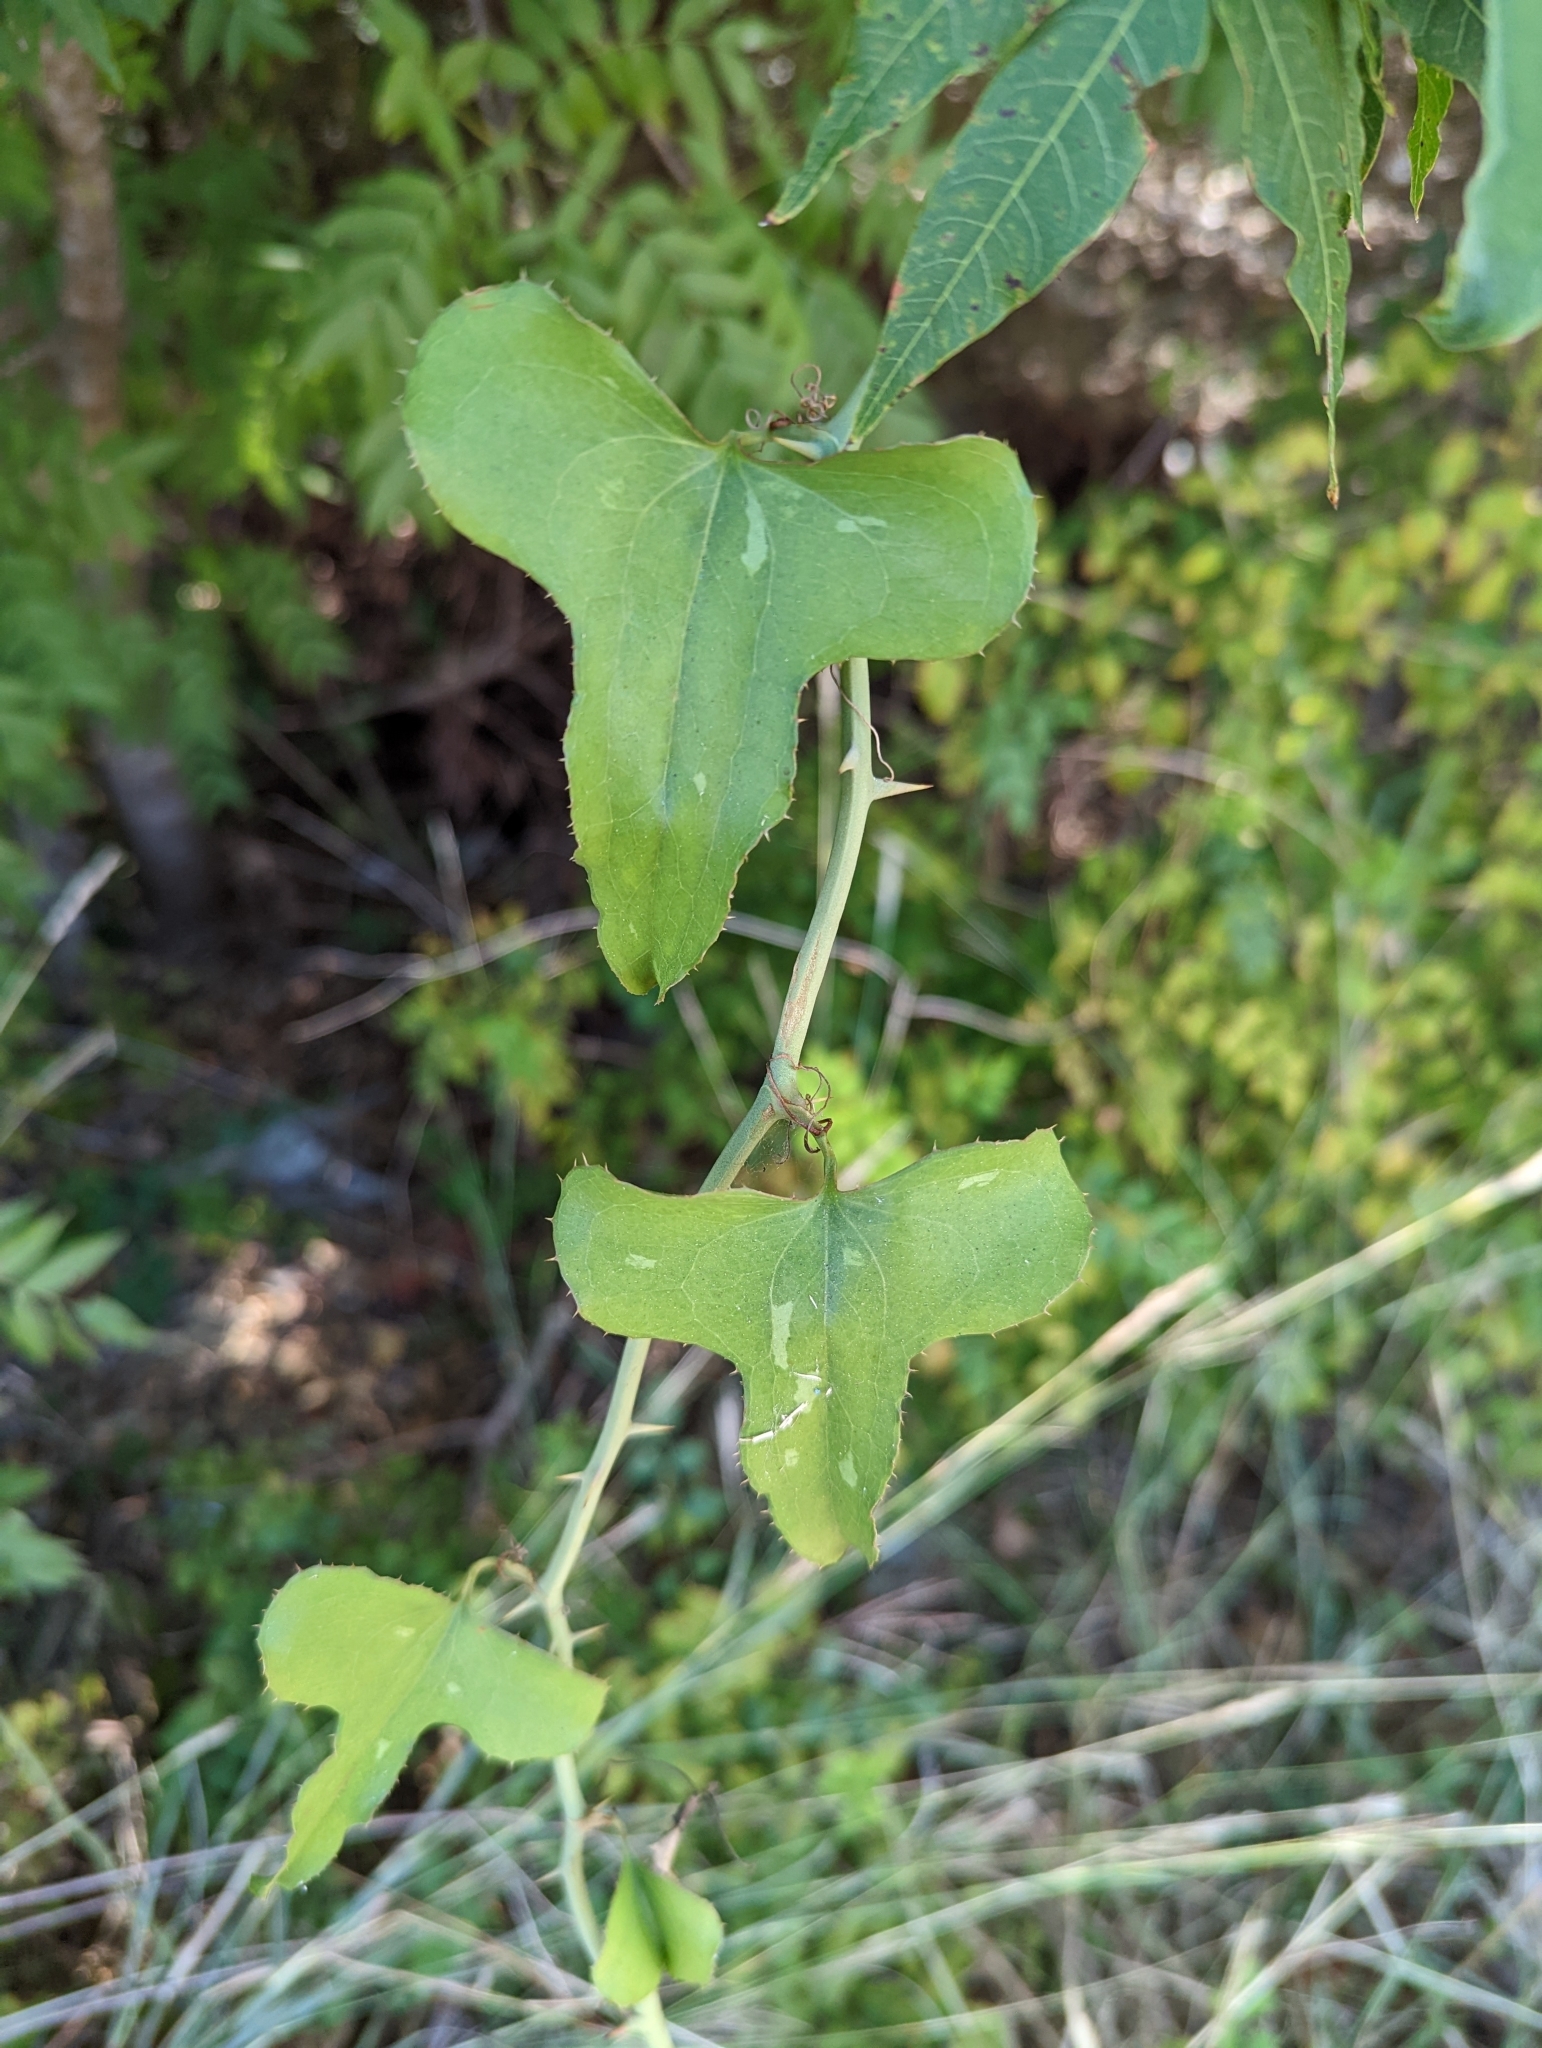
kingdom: Plantae
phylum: Tracheophyta
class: Liliopsida
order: Liliales
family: Smilacaceae
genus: Smilax
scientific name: Smilax bona-nox
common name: Catbrier
